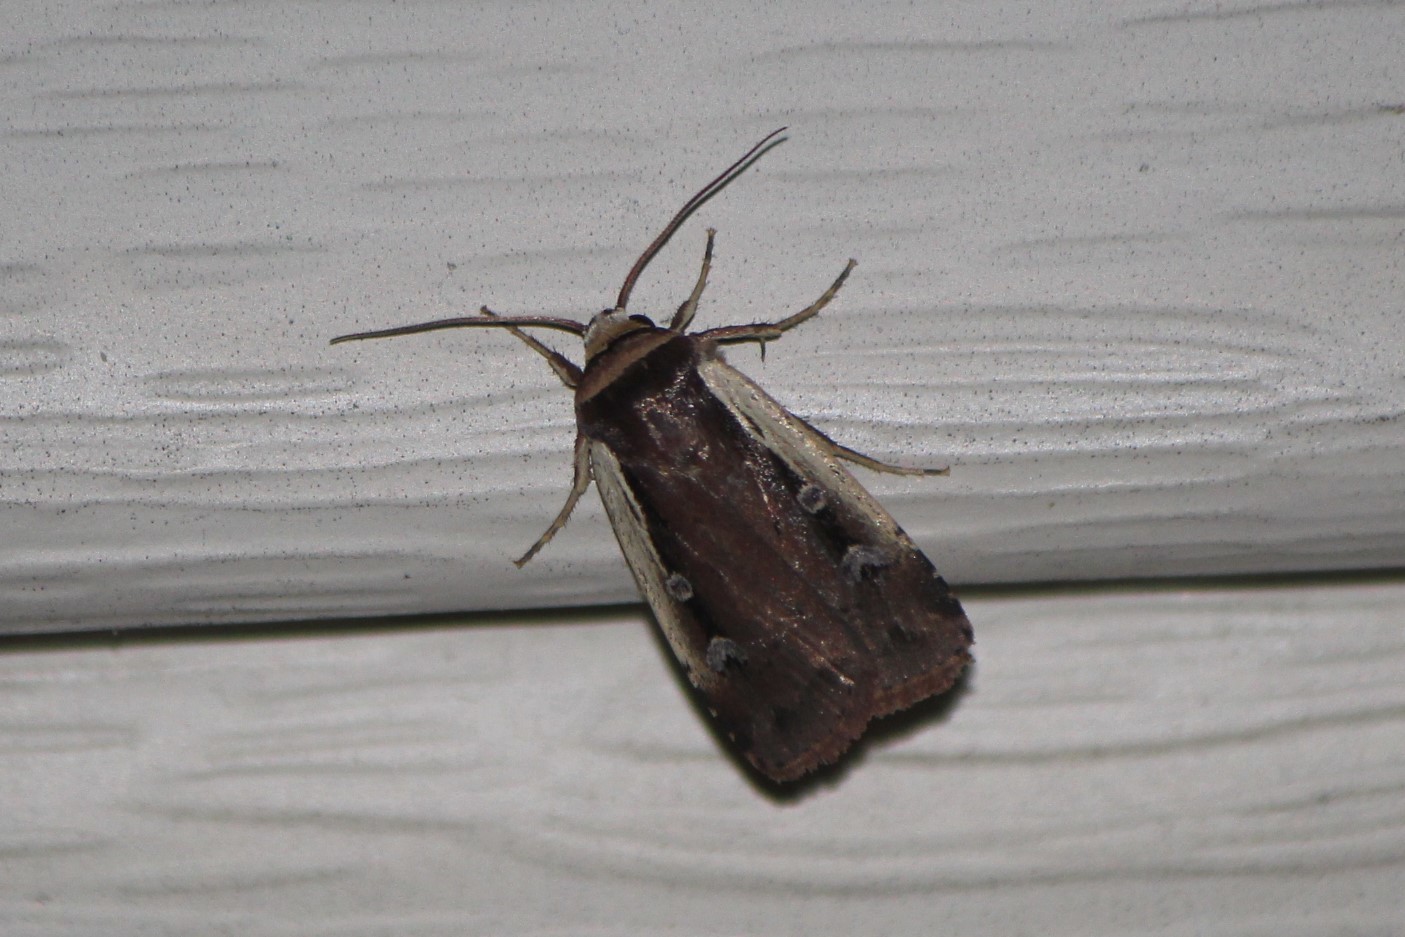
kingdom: Animalia
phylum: Arthropoda
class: Insecta
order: Lepidoptera
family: Noctuidae
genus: Ochropleura
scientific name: Ochropleura implecta
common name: Flame-shouldered dart
